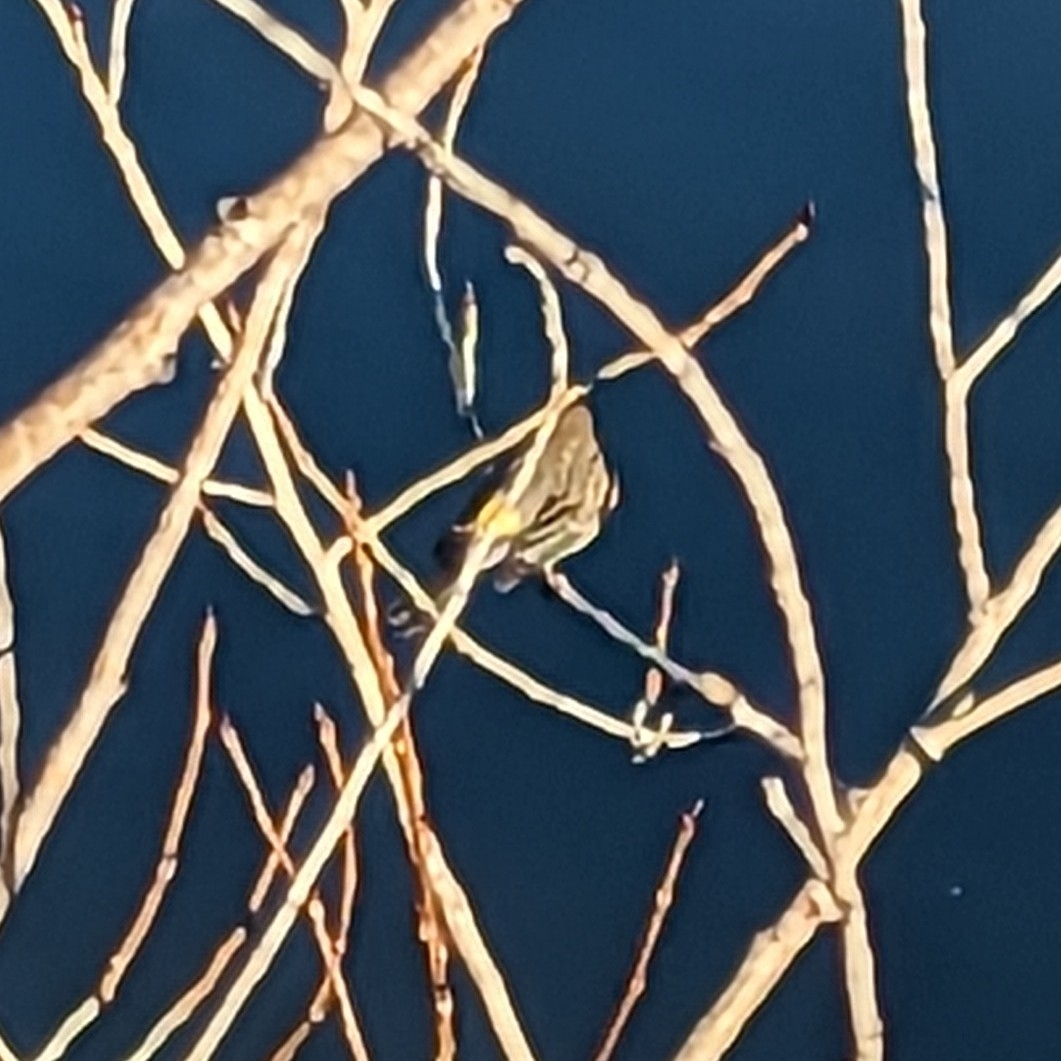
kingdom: Animalia
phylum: Chordata
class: Aves
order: Passeriformes
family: Parulidae
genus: Setophaga
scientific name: Setophaga coronata
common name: Myrtle warbler
